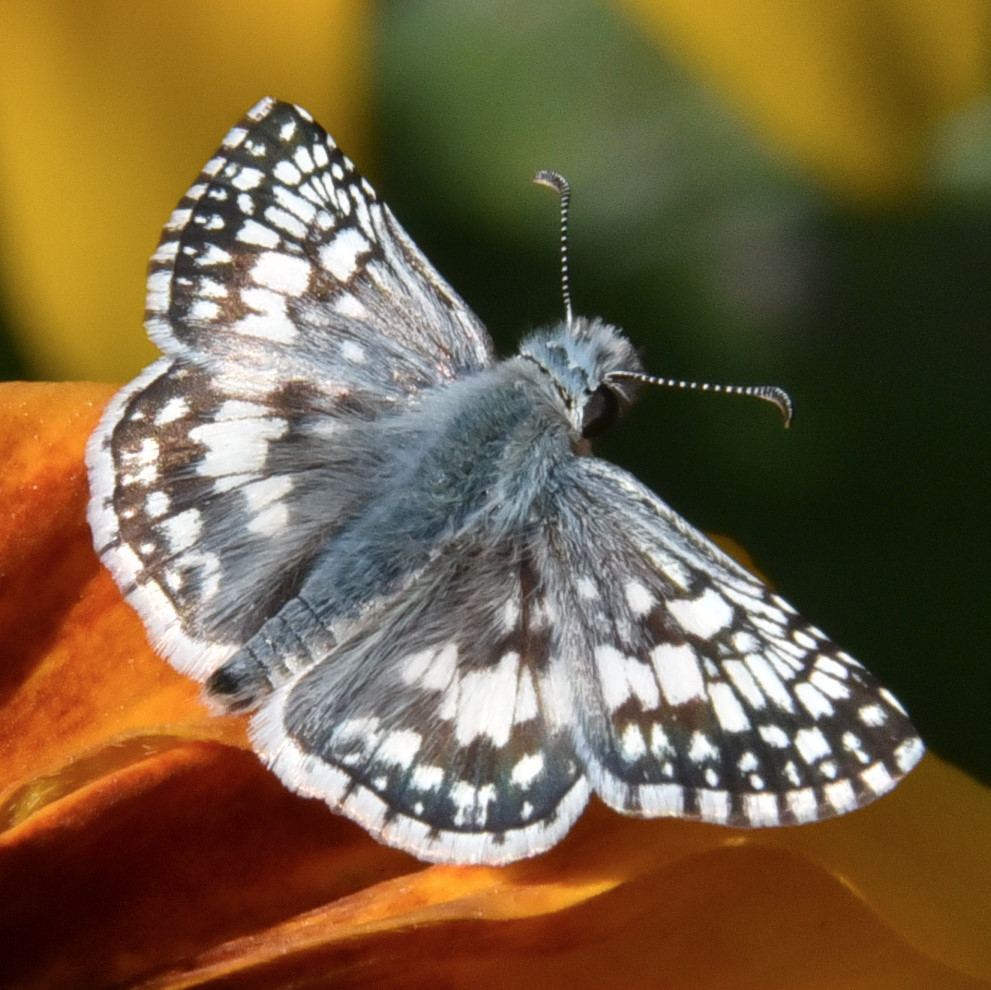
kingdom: Animalia
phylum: Arthropoda
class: Insecta
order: Lepidoptera
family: Hesperiidae
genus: Burnsius
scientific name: Burnsius communis
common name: Common checkered-skipper
